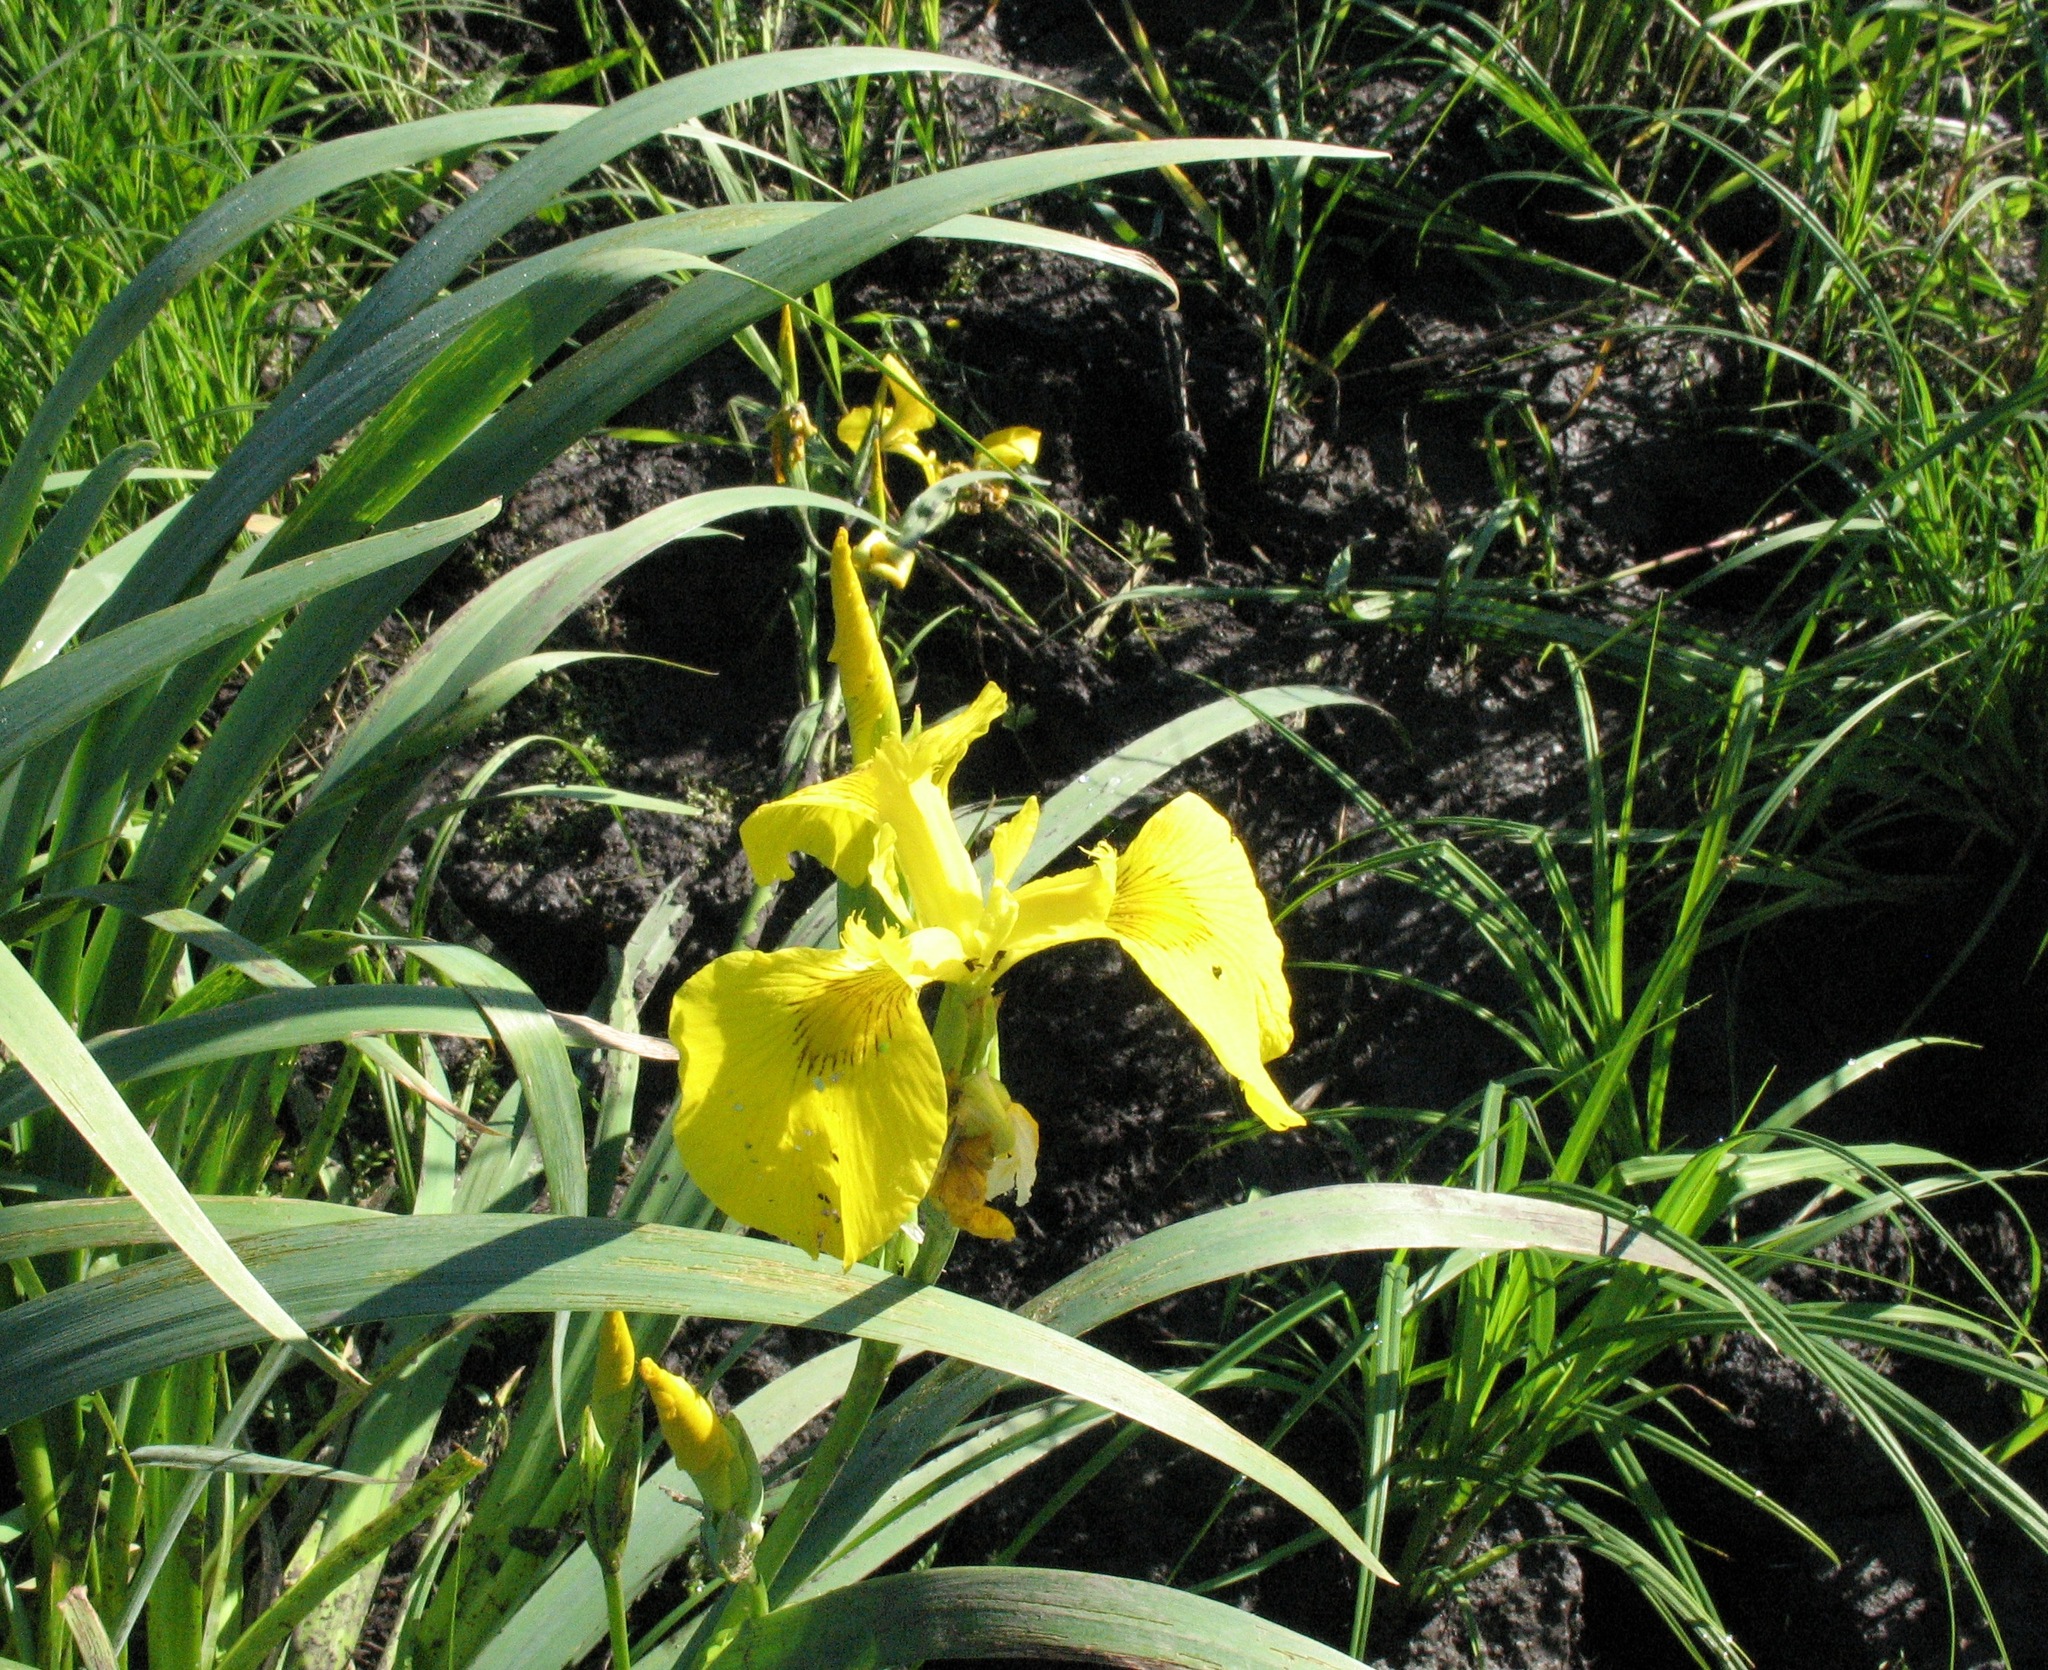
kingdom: Plantae
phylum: Tracheophyta
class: Liliopsida
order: Asparagales
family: Iridaceae
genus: Iris
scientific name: Iris pseudacorus
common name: Yellow flag
